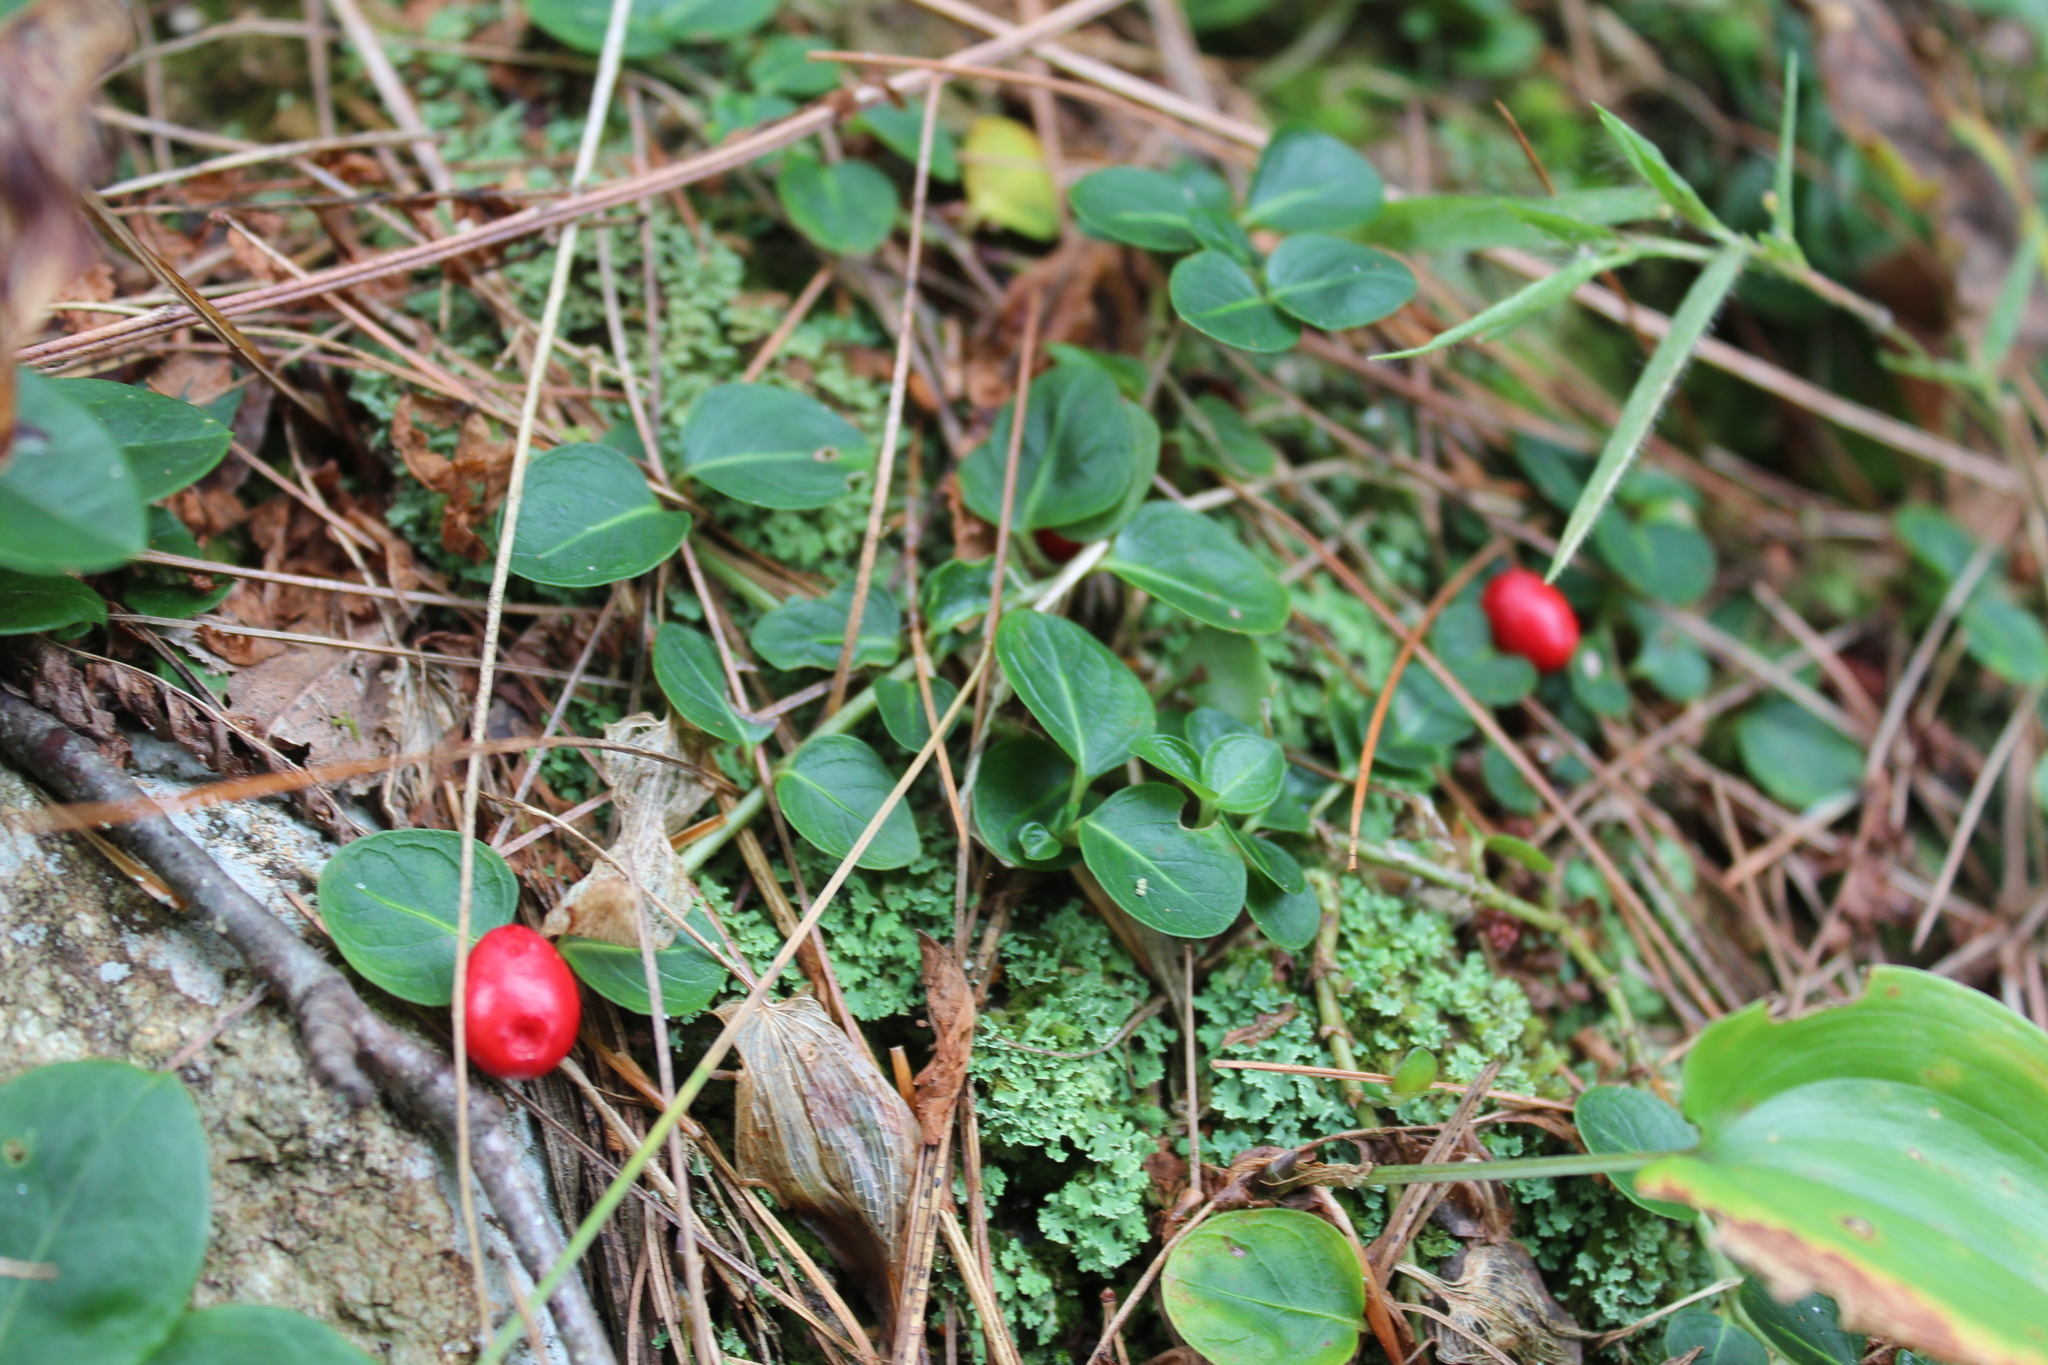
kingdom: Plantae
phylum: Tracheophyta
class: Magnoliopsida
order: Gentianales
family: Rubiaceae
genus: Mitchella
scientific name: Mitchella repens
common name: Partridge-berry
